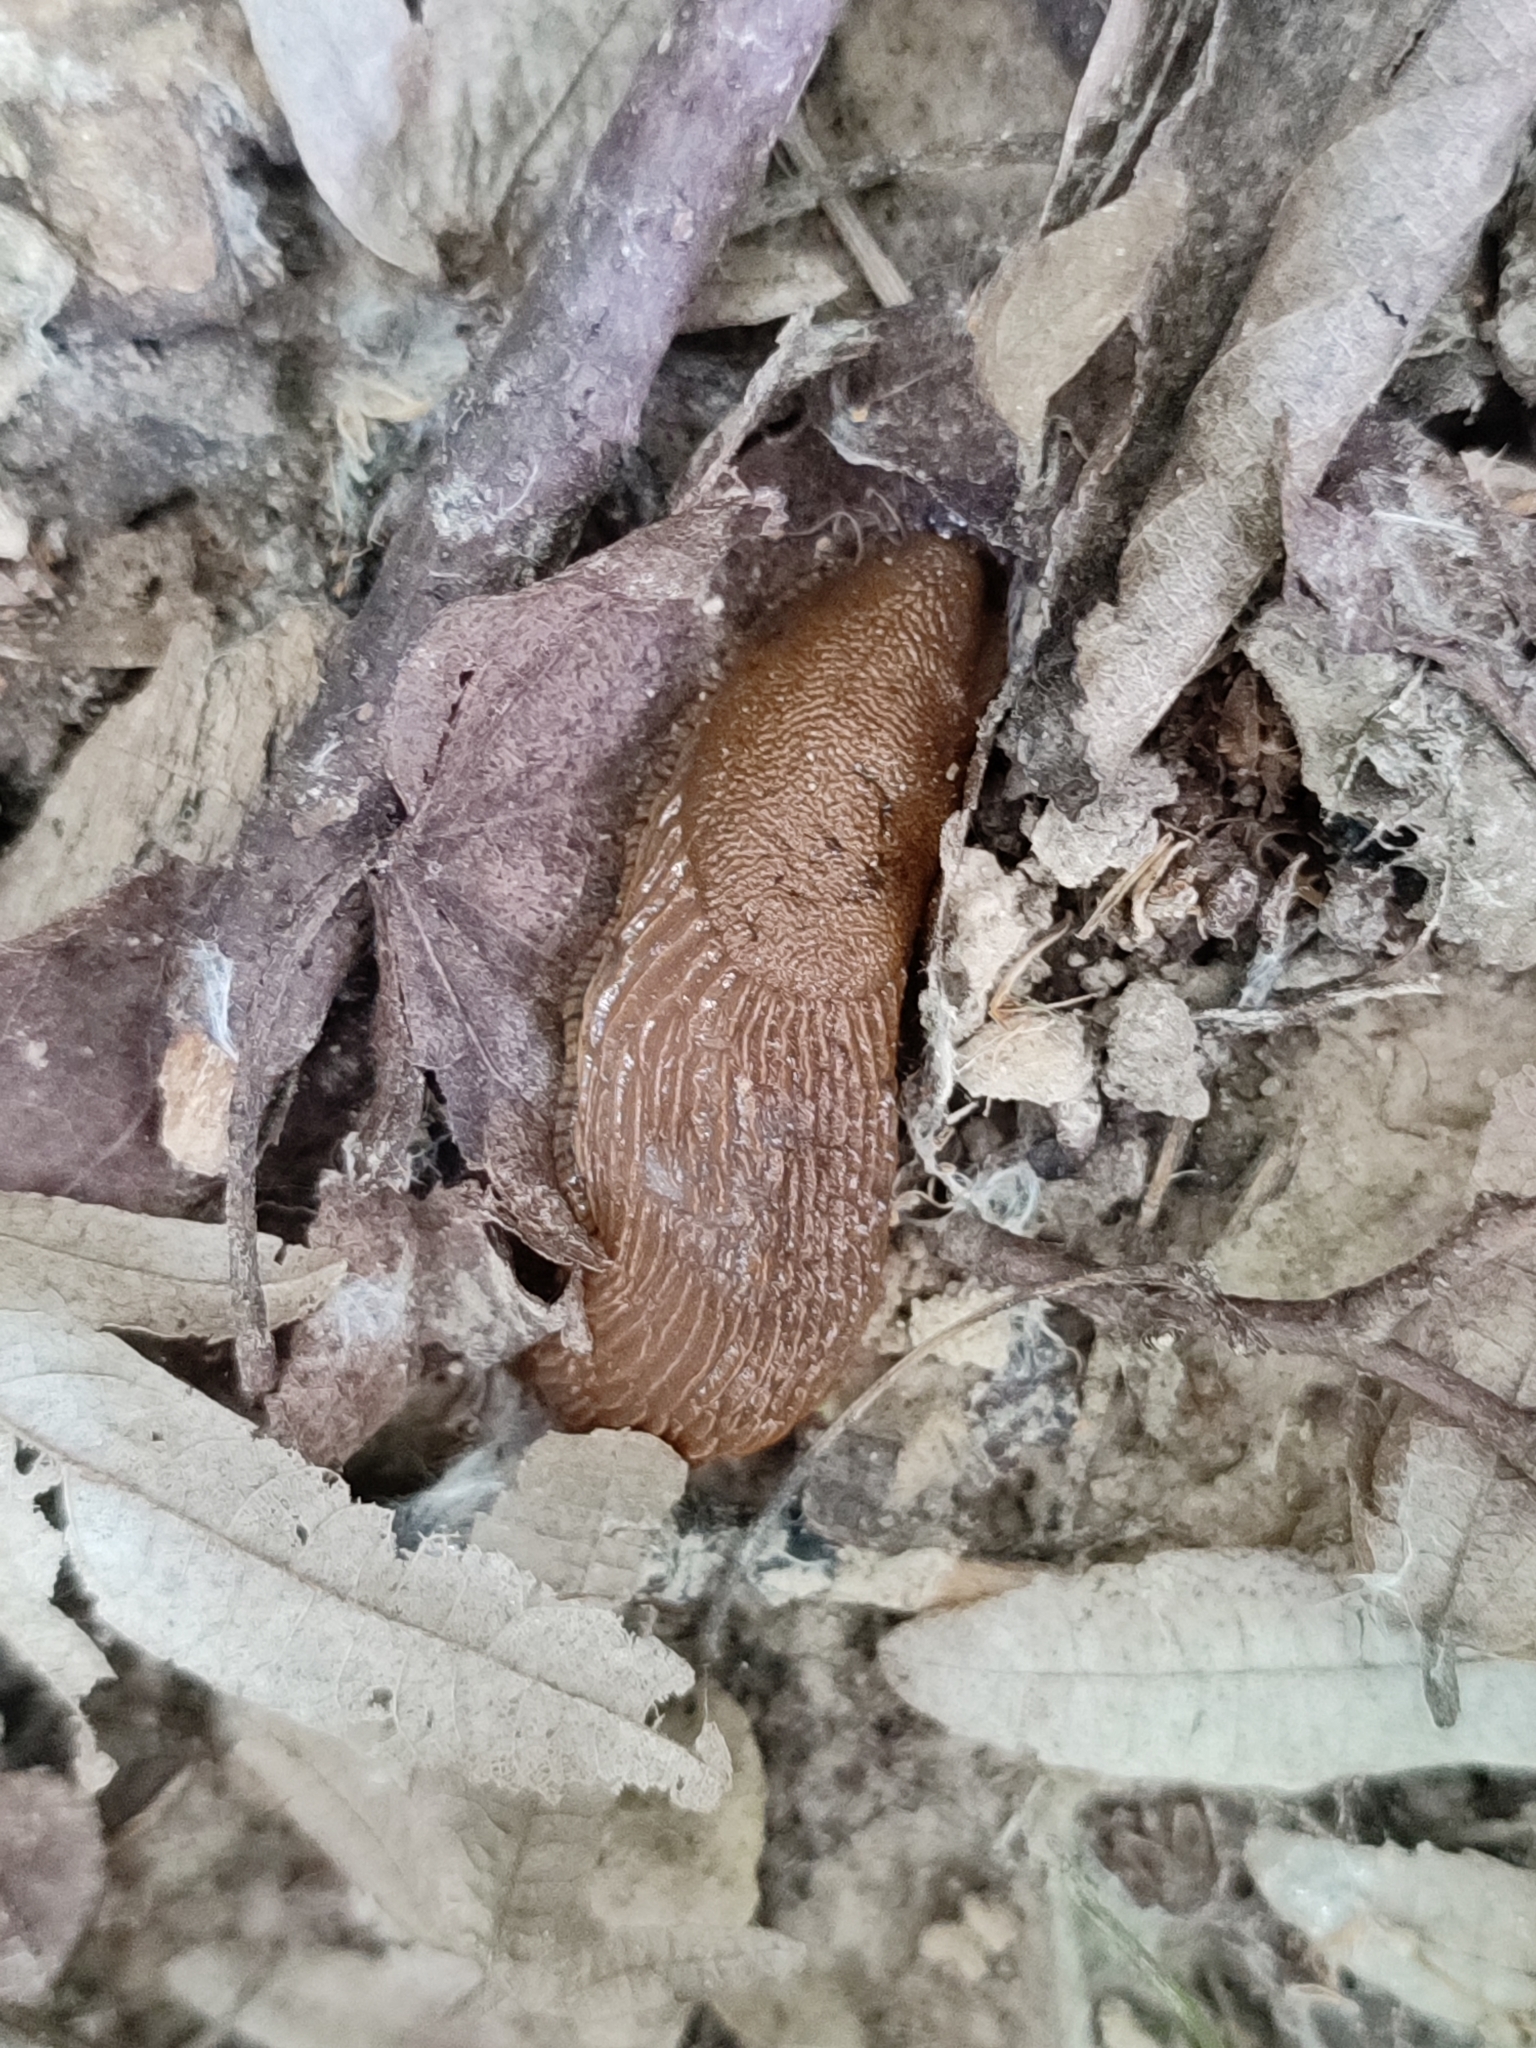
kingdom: Animalia
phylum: Mollusca
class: Gastropoda
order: Stylommatophora
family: Arionidae
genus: Arion
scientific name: Arion vulgaris
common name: Lusitanian slug
